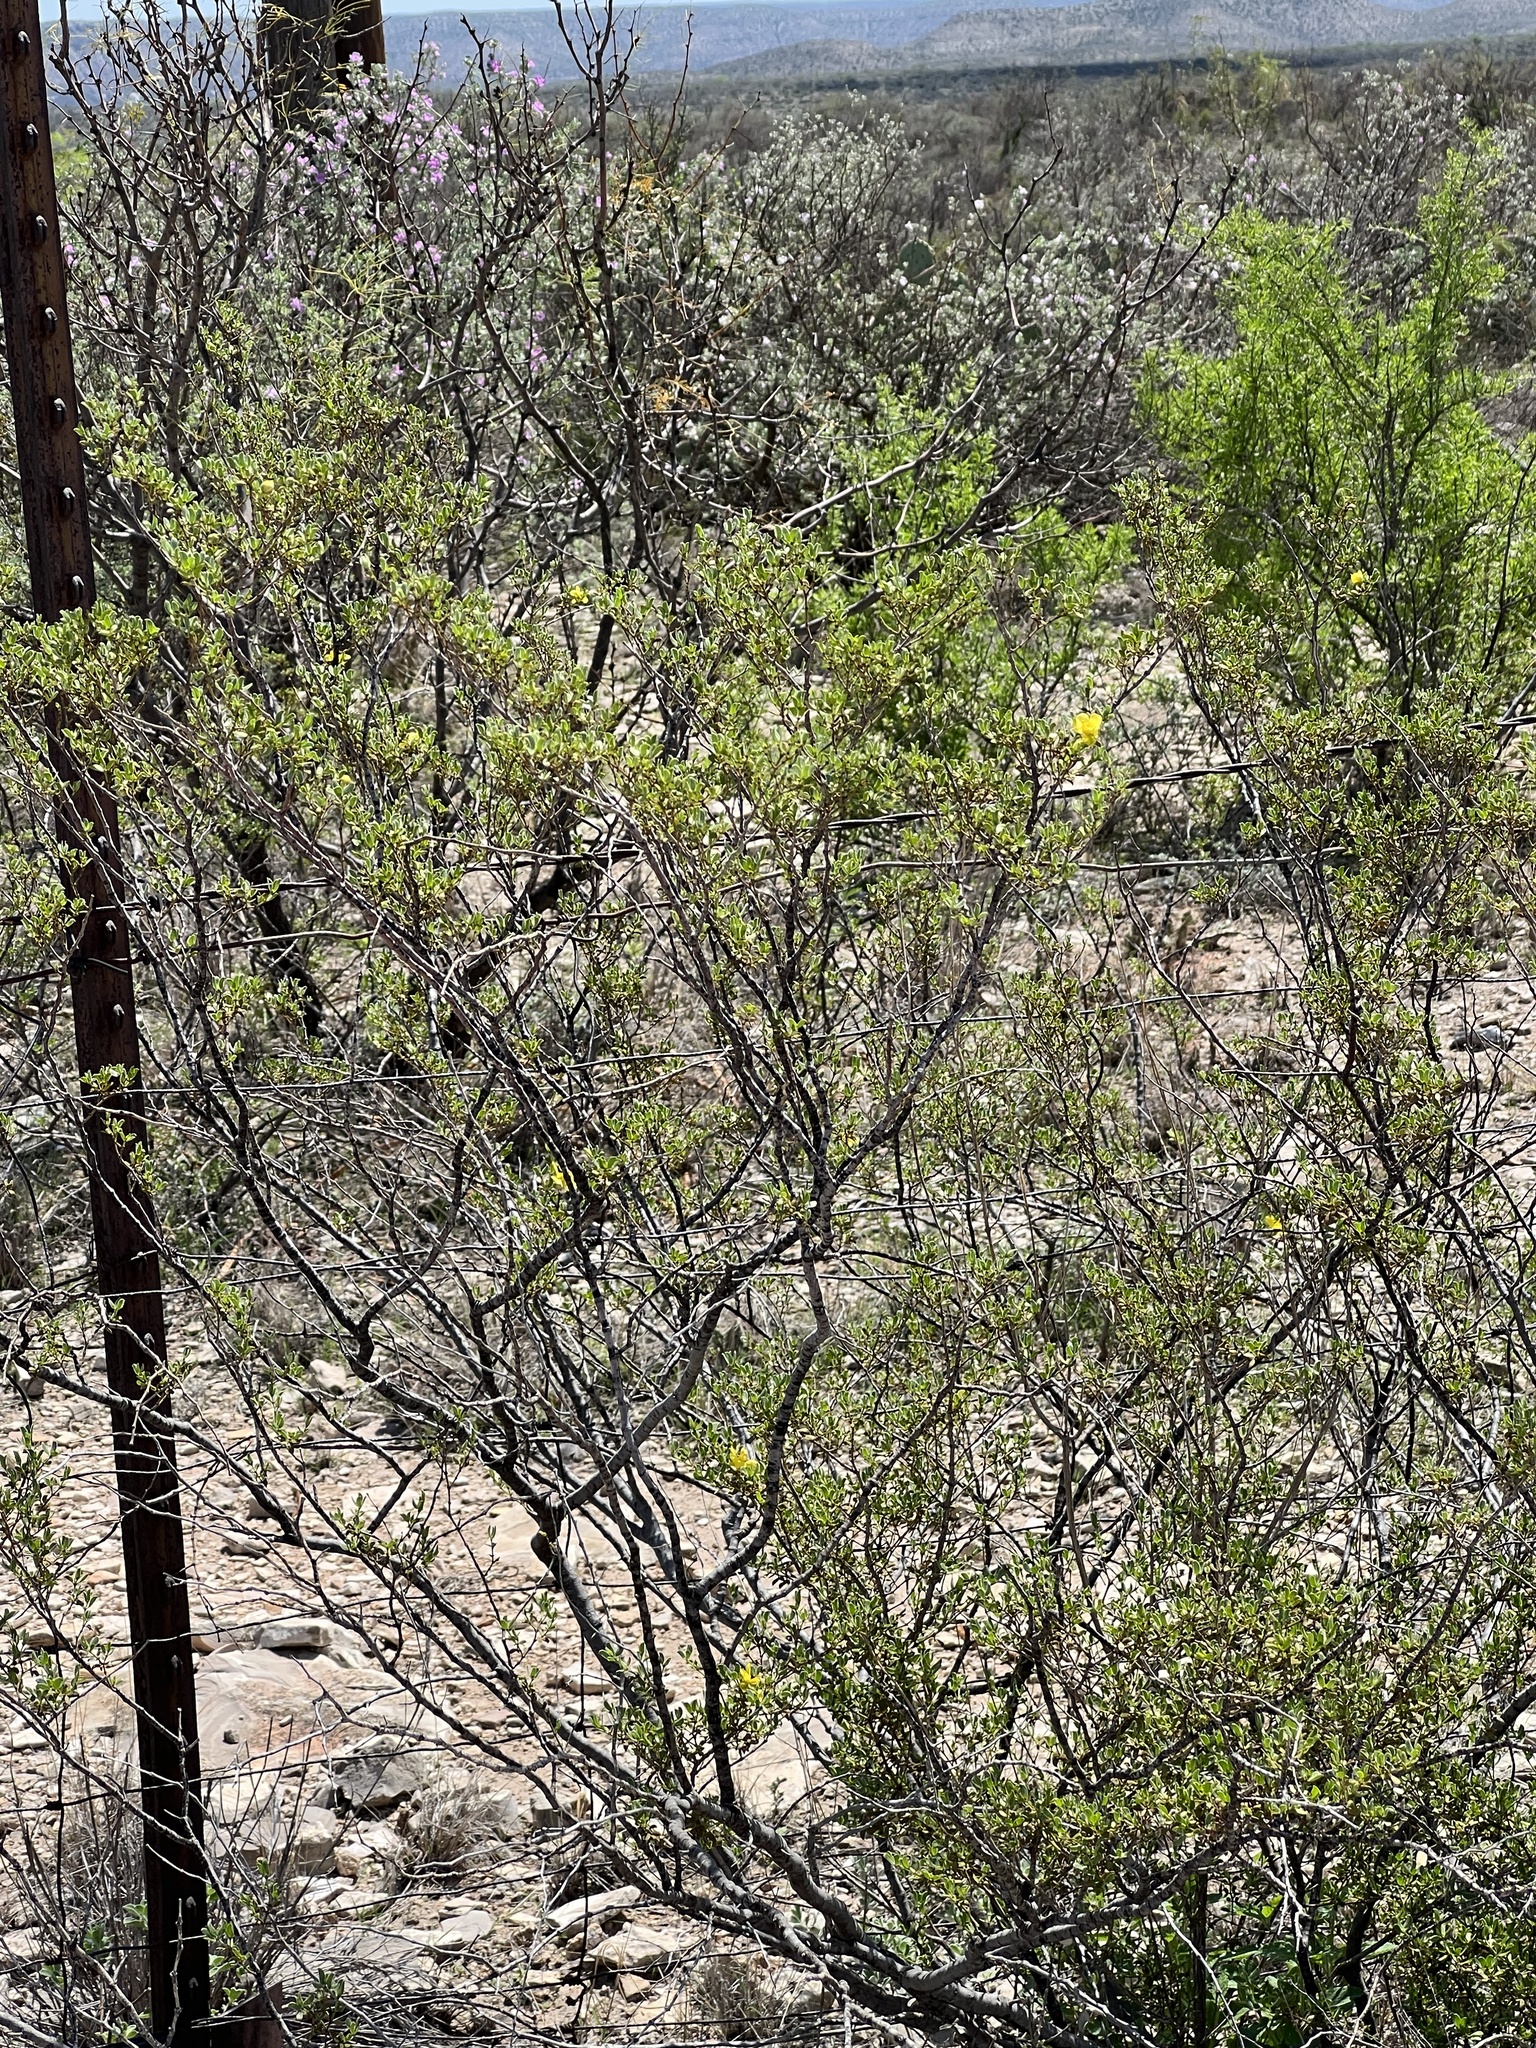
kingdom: Plantae
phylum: Tracheophyta
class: Magnoliopsida
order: Zygophyllales
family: Zygophyllaceae
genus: Larrea
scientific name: Larrea tridentata
